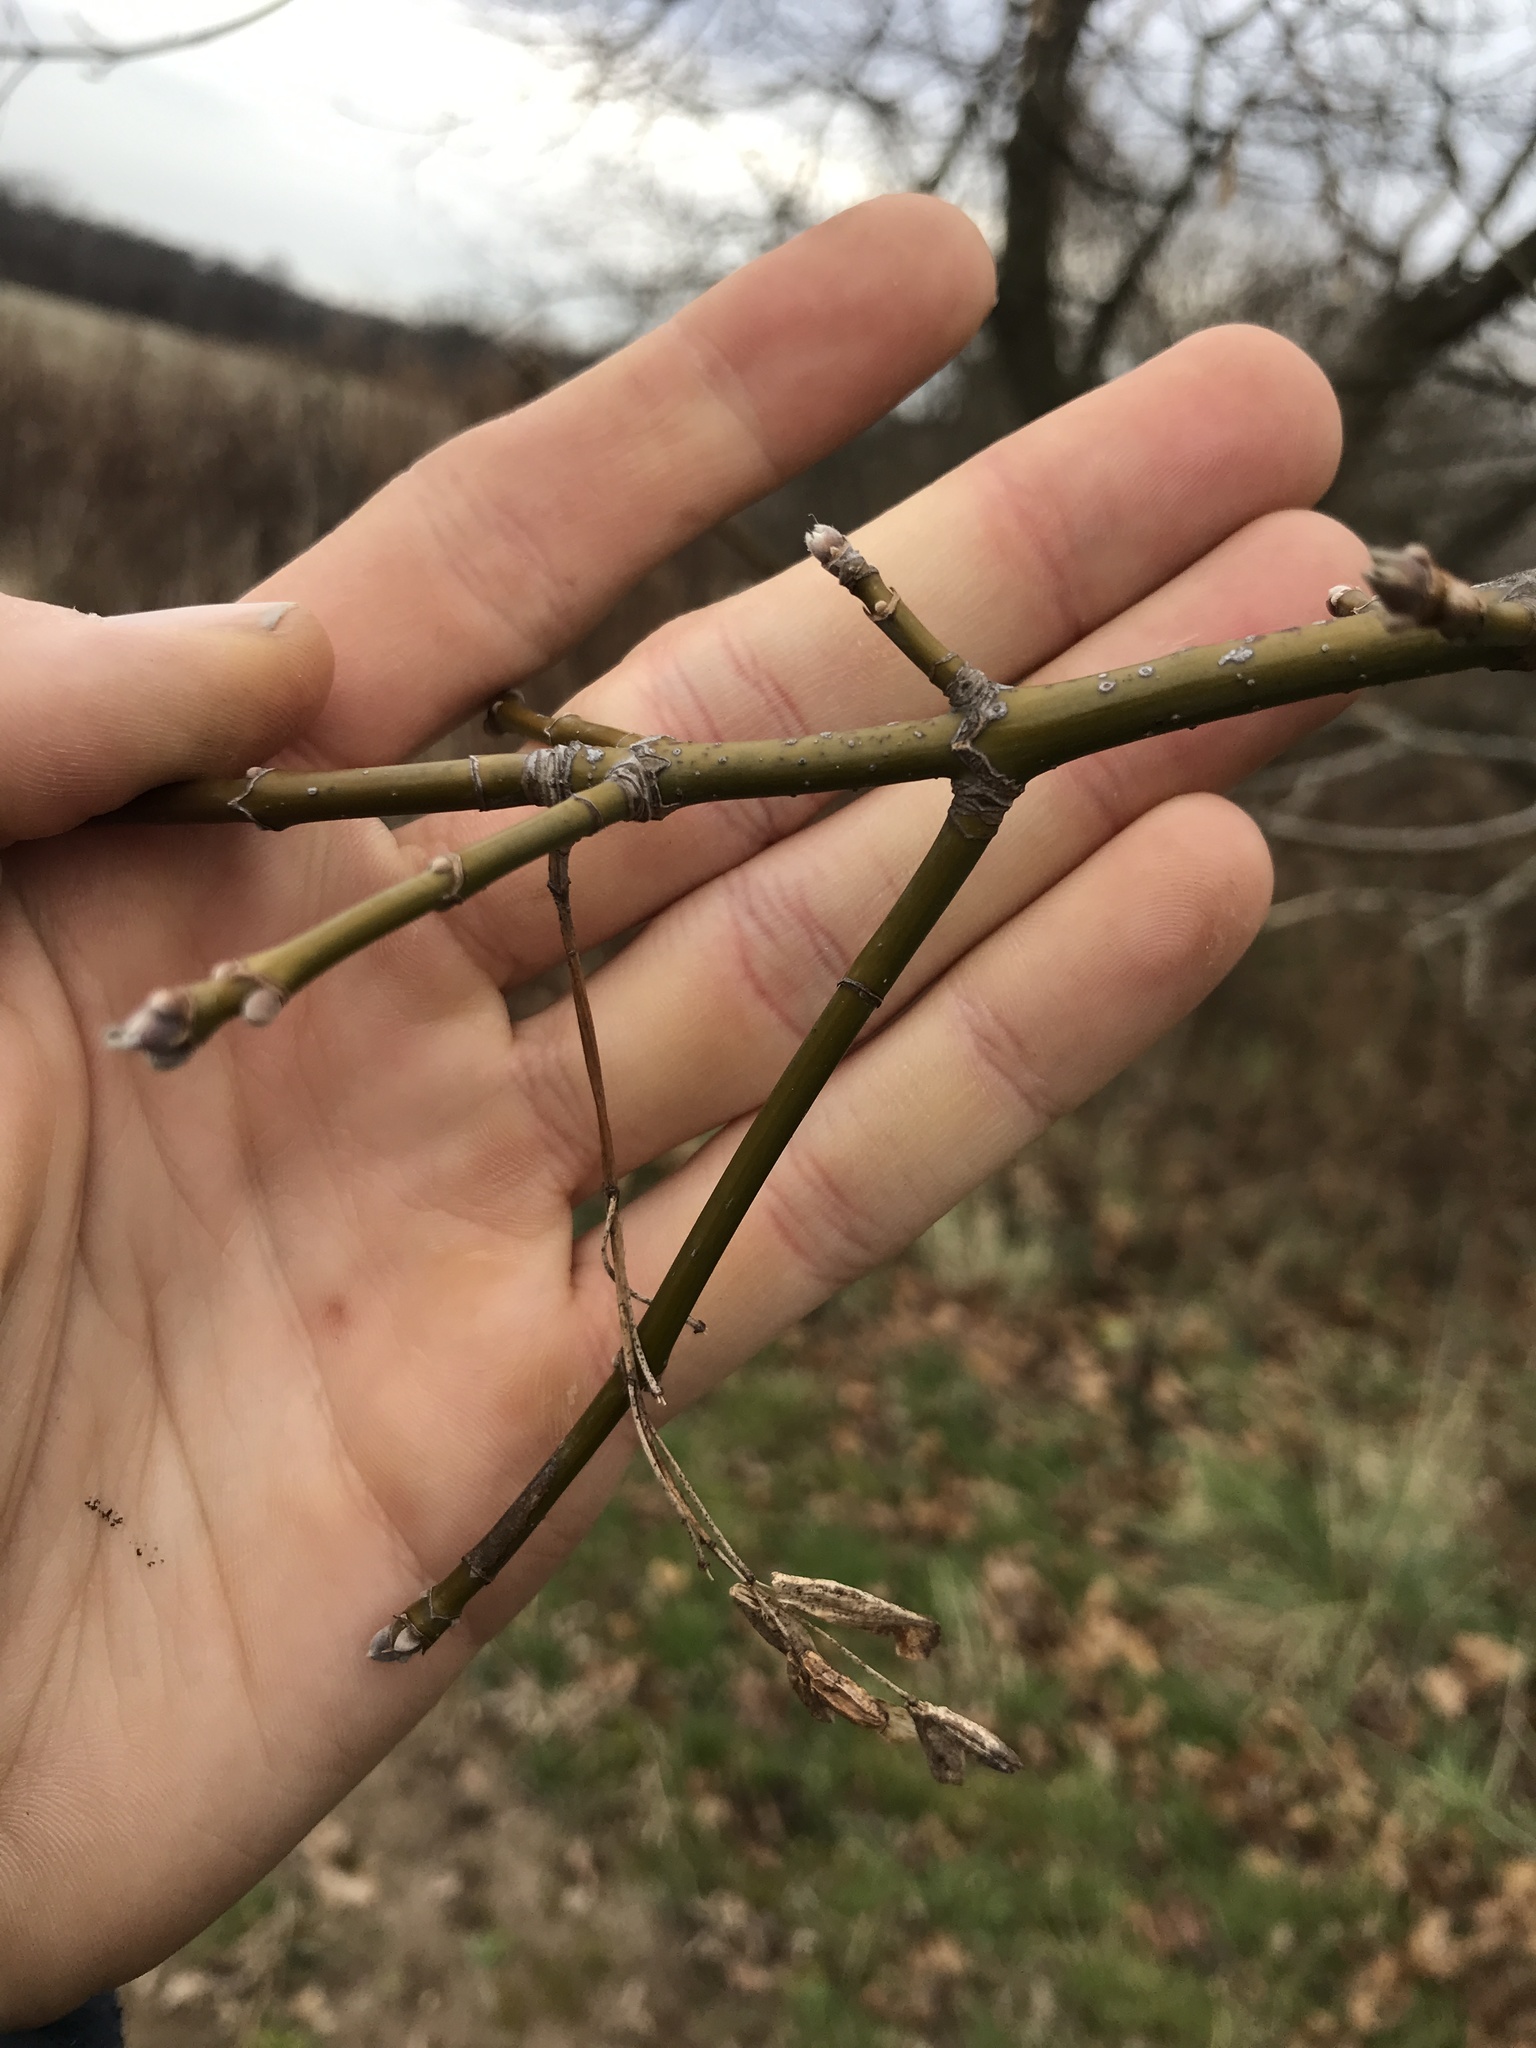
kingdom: Plantae
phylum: Tracheophyta
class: Magnoliopsida
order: Sapindales
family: Sapindaceae
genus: Acer
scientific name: Acer negundo
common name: Ashleaf maple
